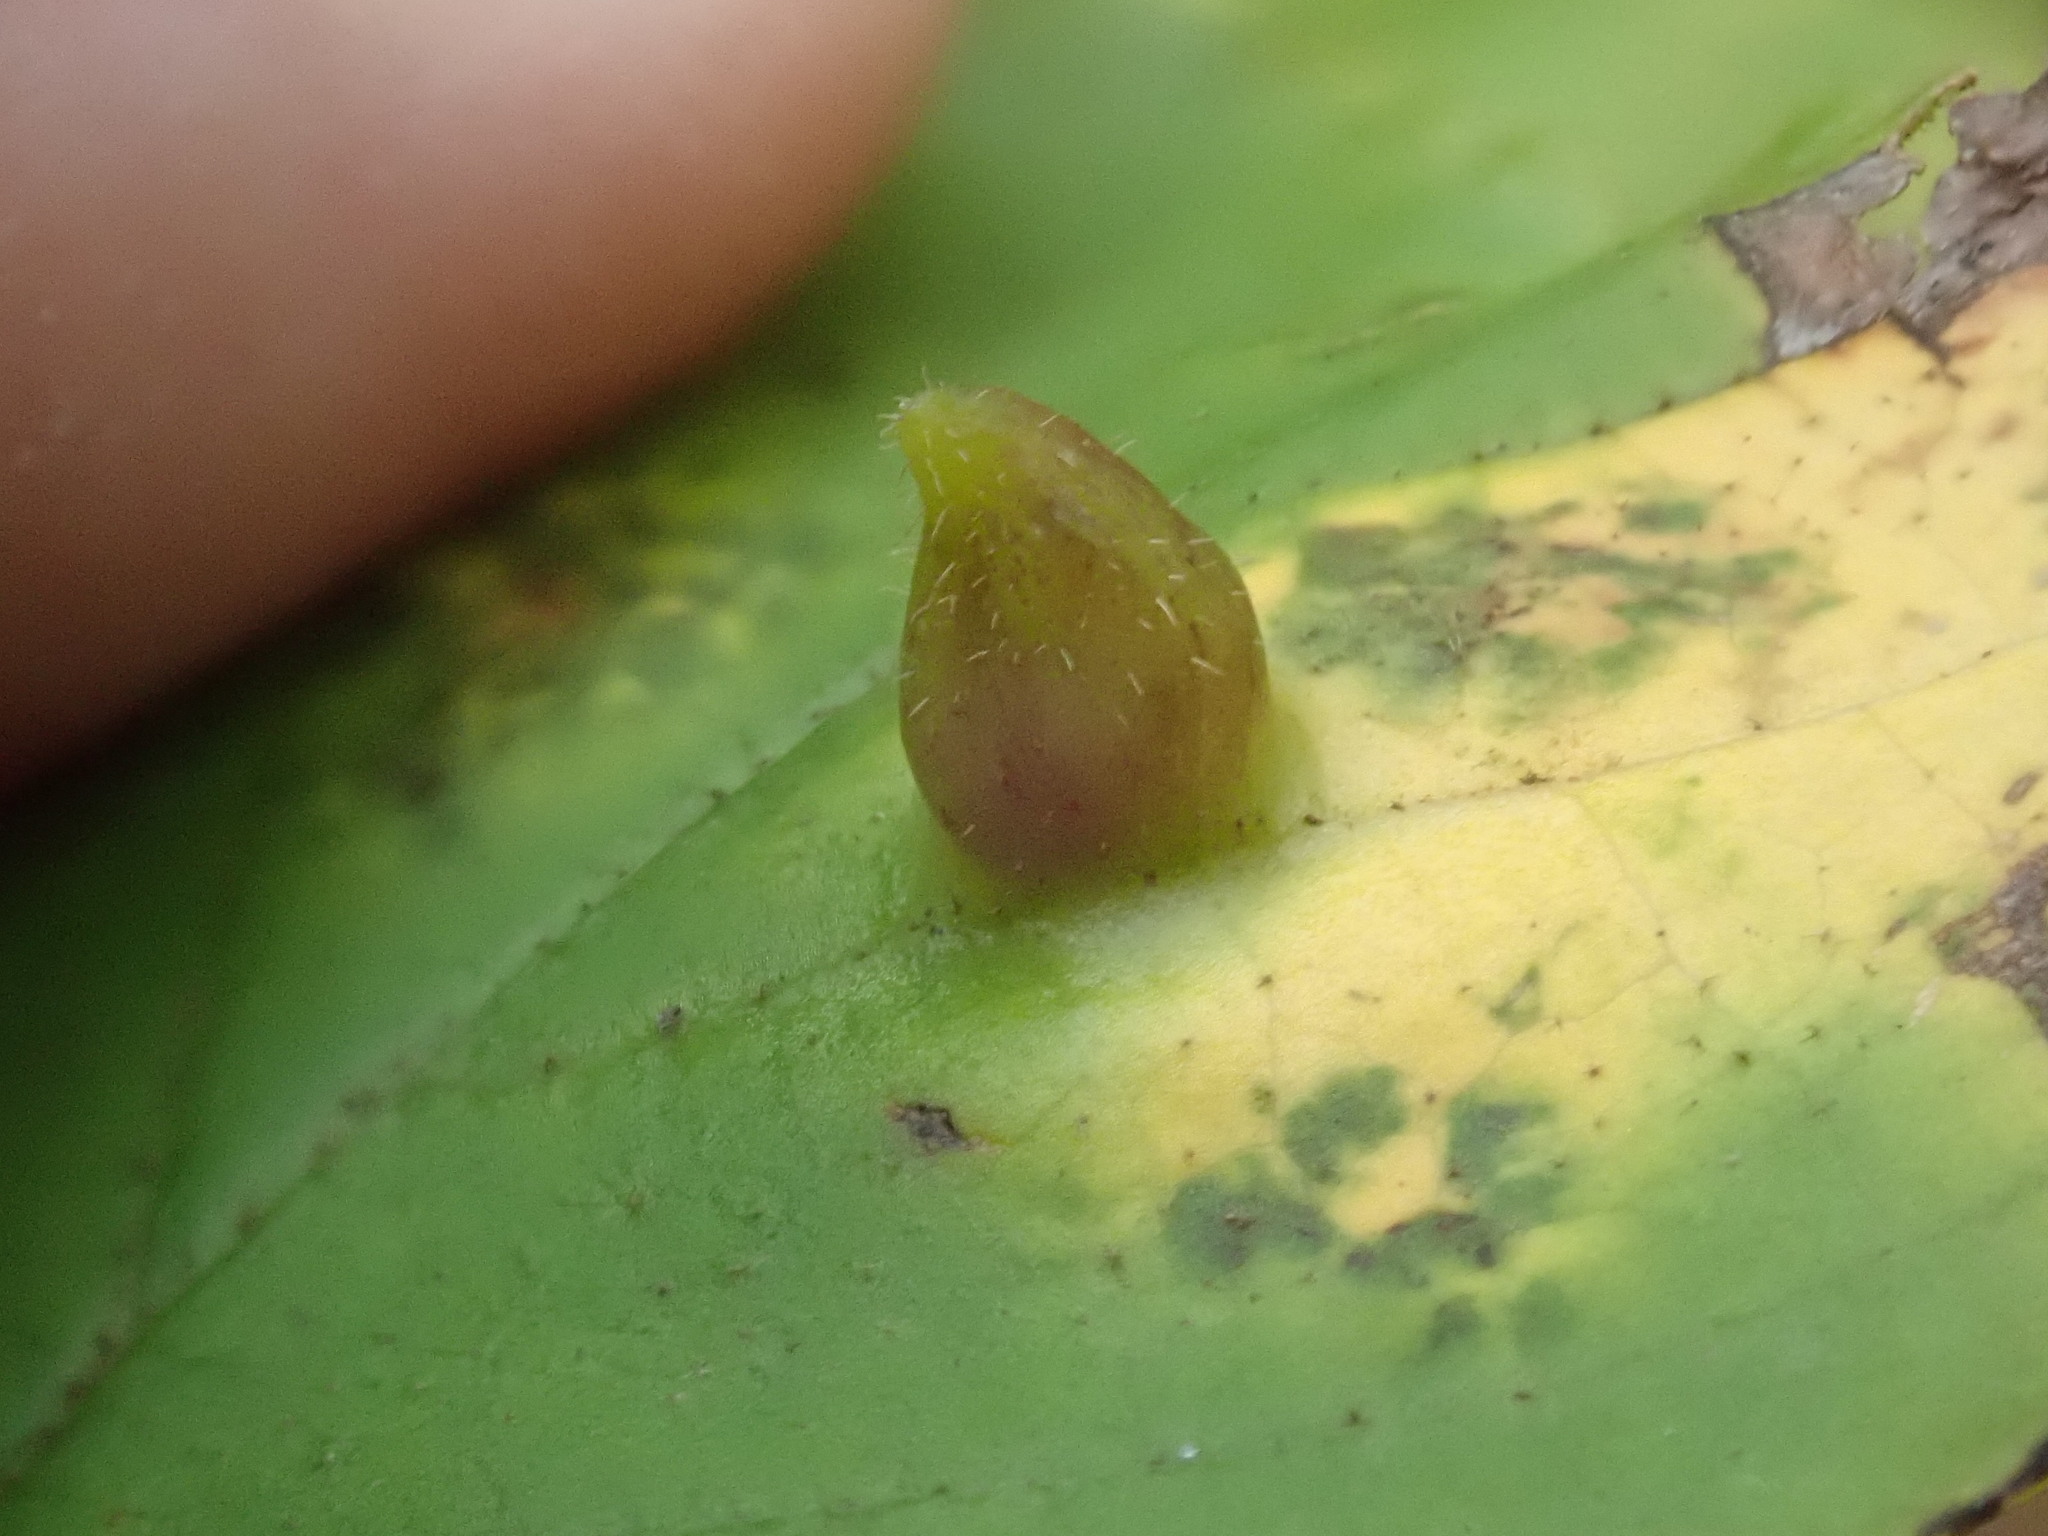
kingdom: Animalia
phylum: Arthropoda
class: Insecta
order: Hemiptera
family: Aphididae
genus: Hormaphis
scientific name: Hormaphis hamamelidis
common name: Witch-hazel cone gall aphid
